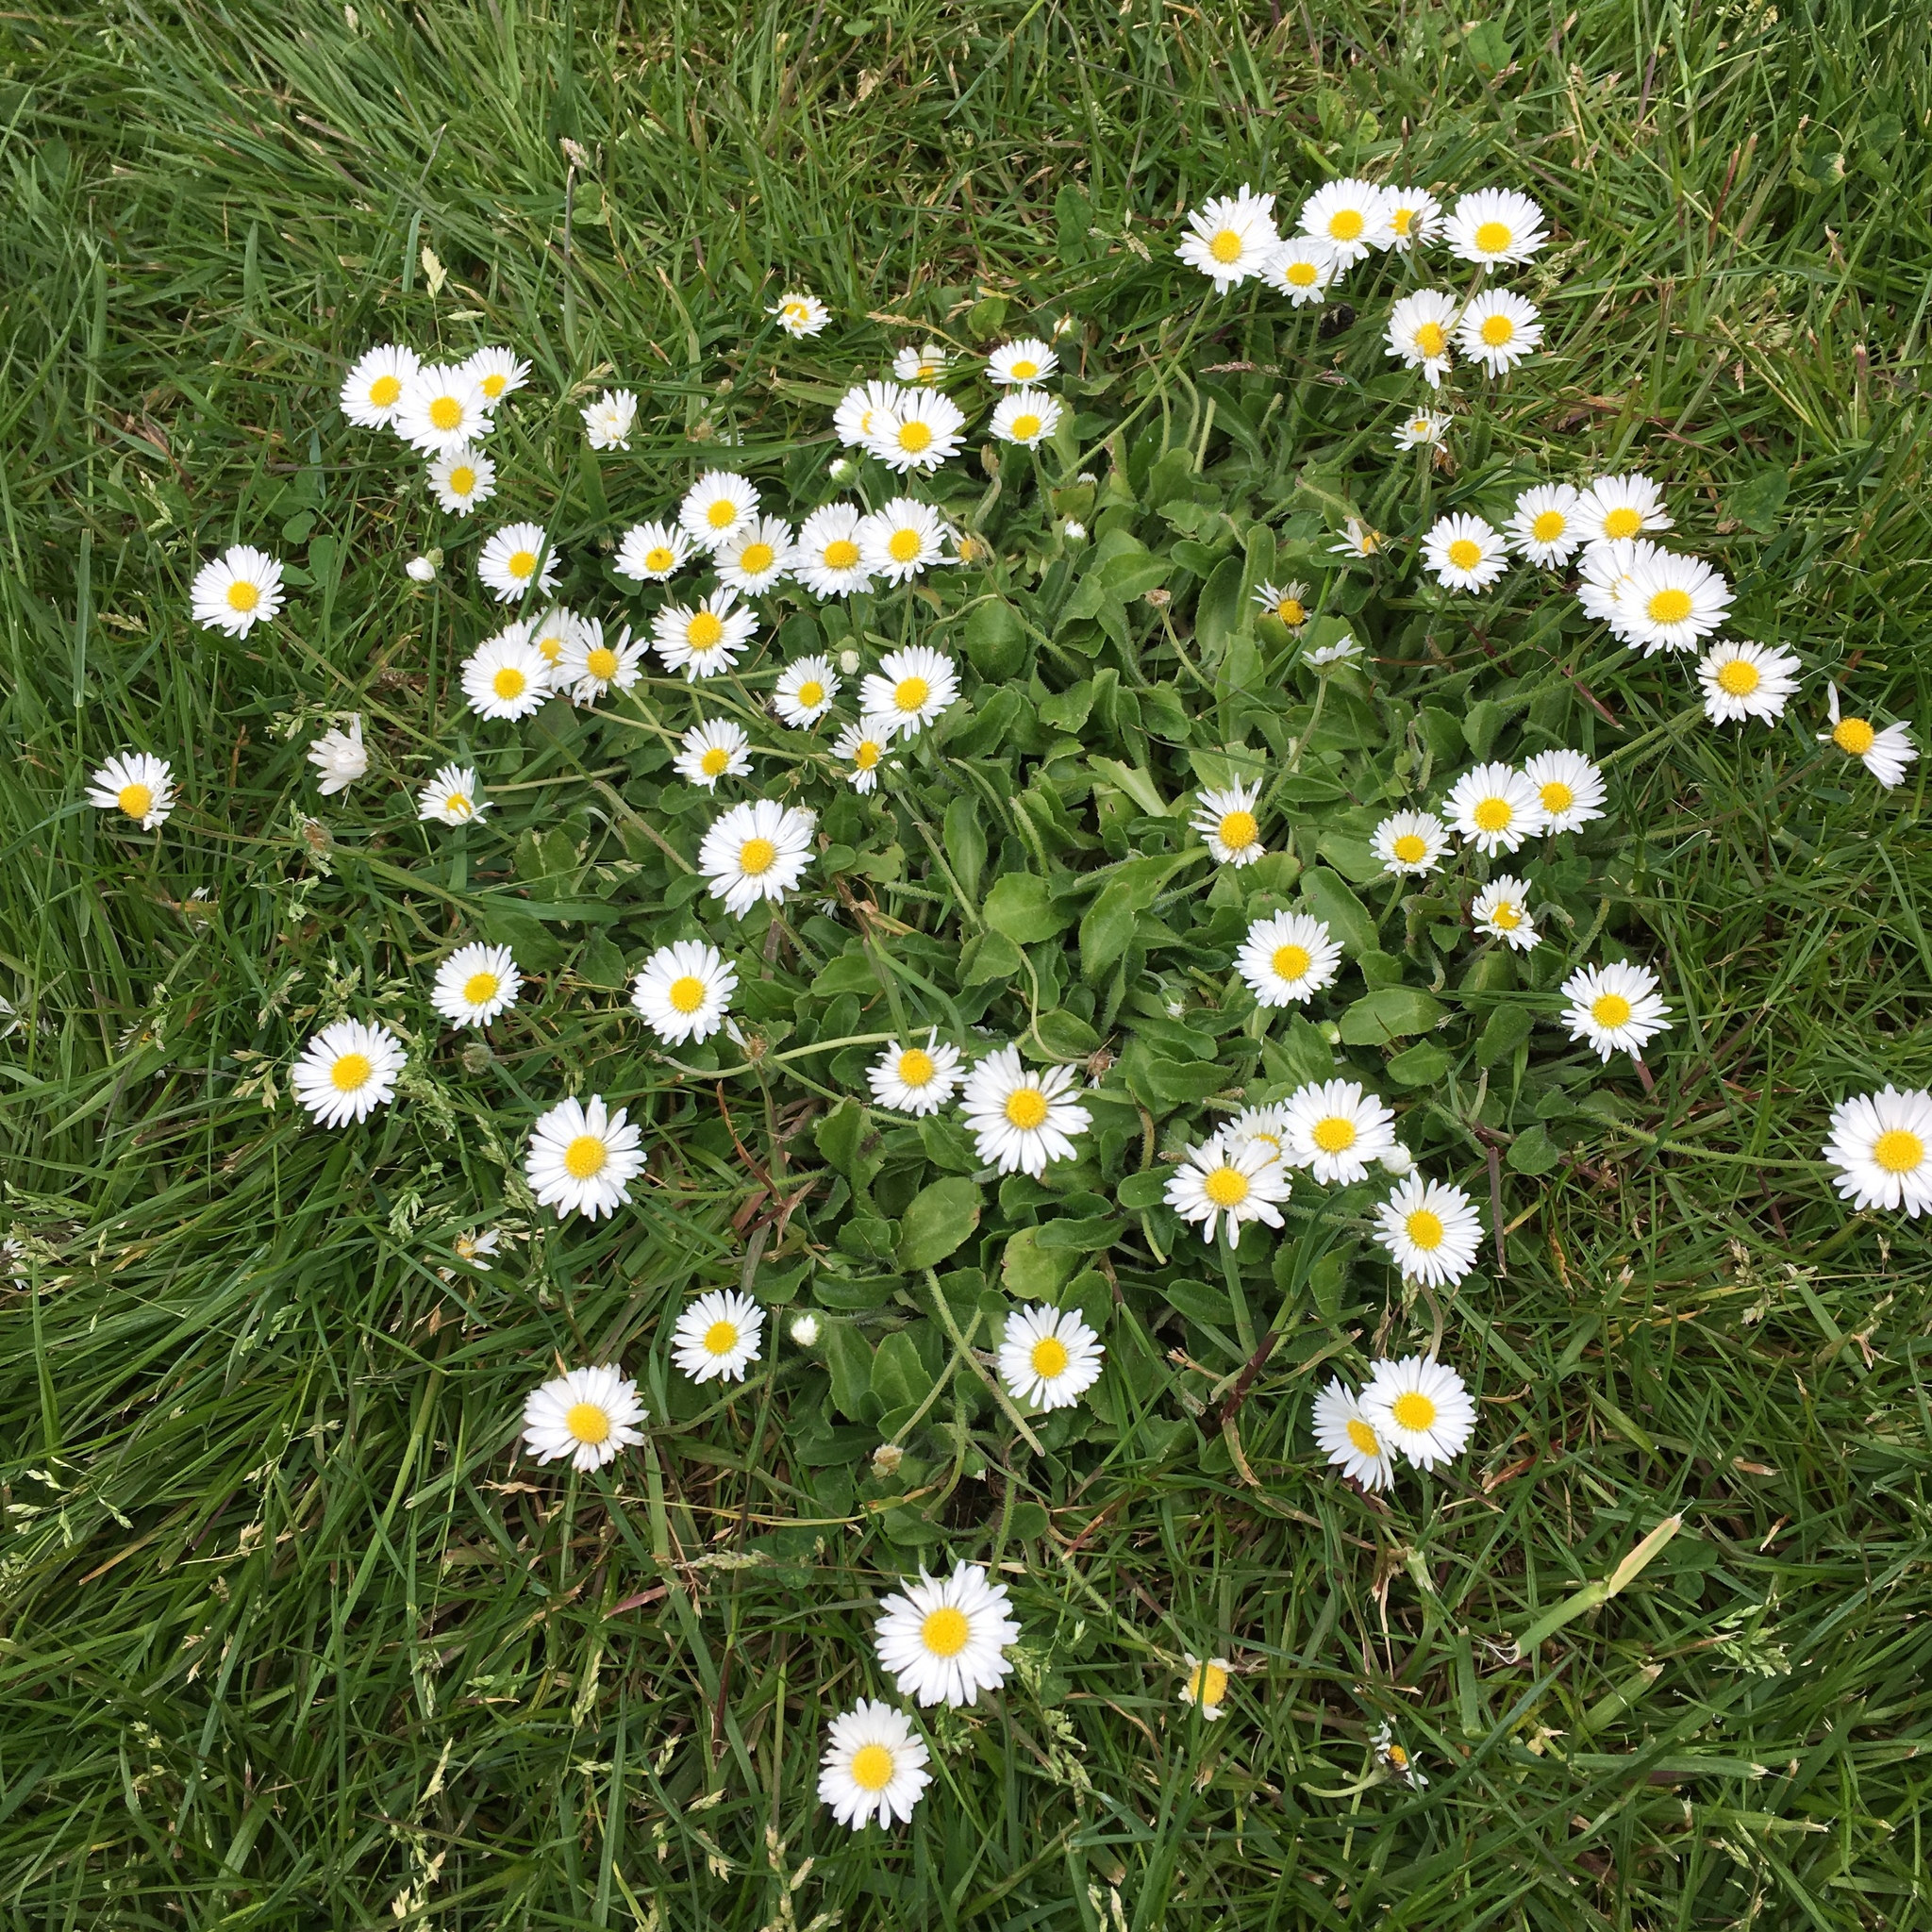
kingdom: Plantae
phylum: Tracheophyta
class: Magnoliopsida
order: Asterales
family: Asteraceae
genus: Bellis
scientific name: Bellis perennis
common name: Lawndaisy
